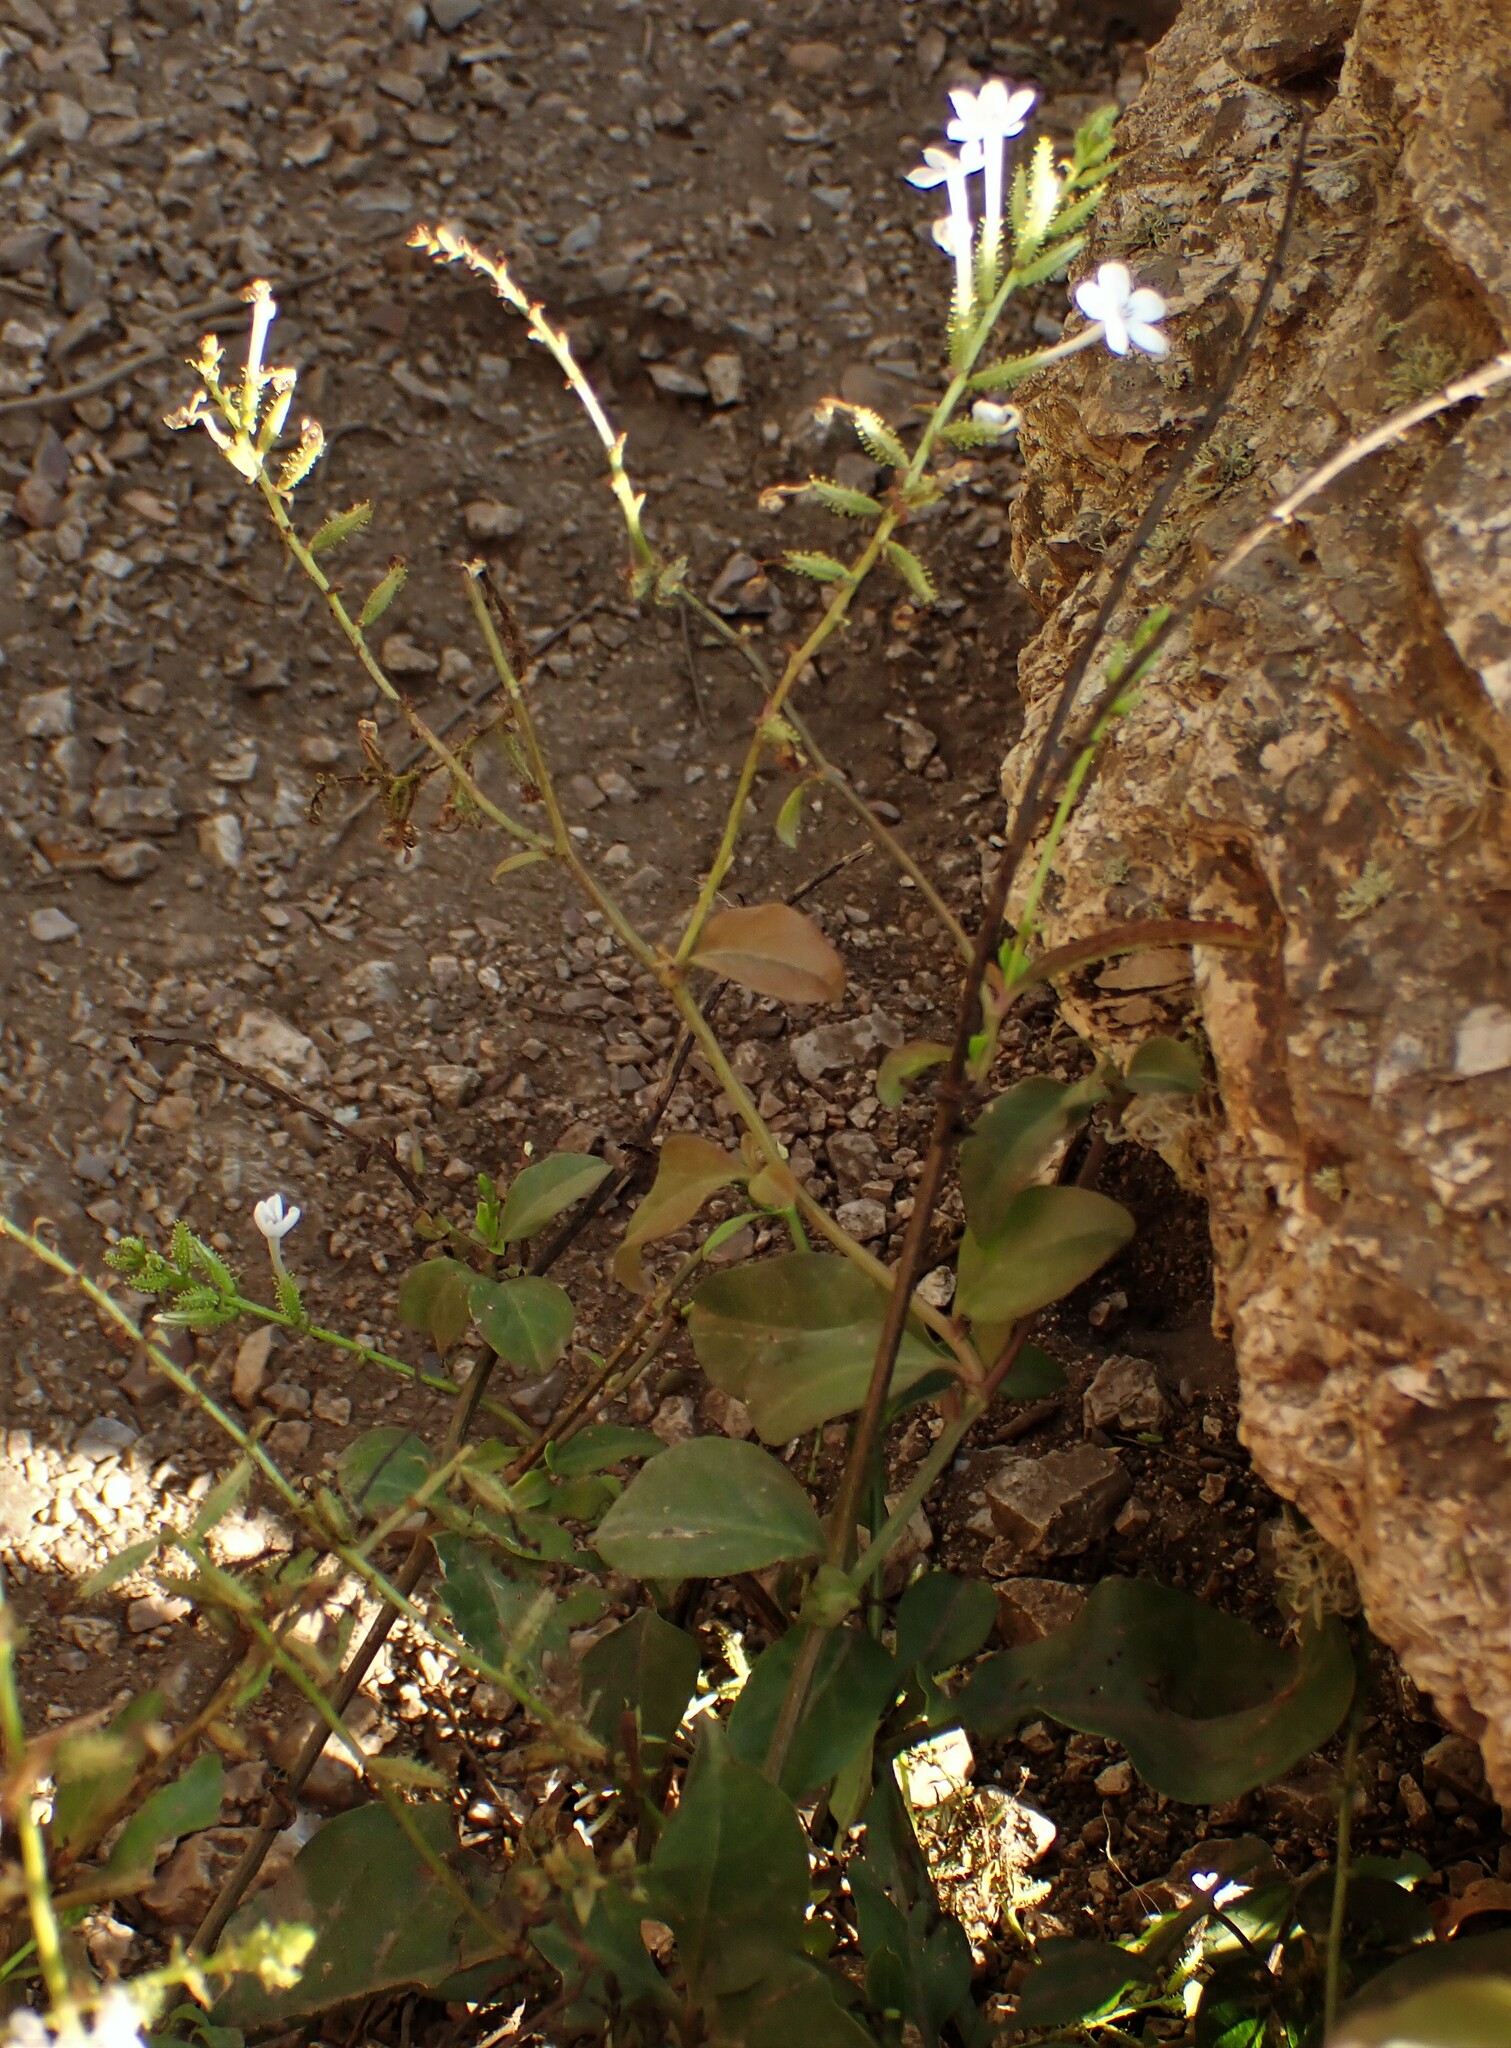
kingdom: Plantae
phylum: Tracheophyta
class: Magnoliopsida
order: Caryophyllales
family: Plumbaginaceae
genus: Plumbago
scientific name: Plumbago zeylanica
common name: Doctorbush
